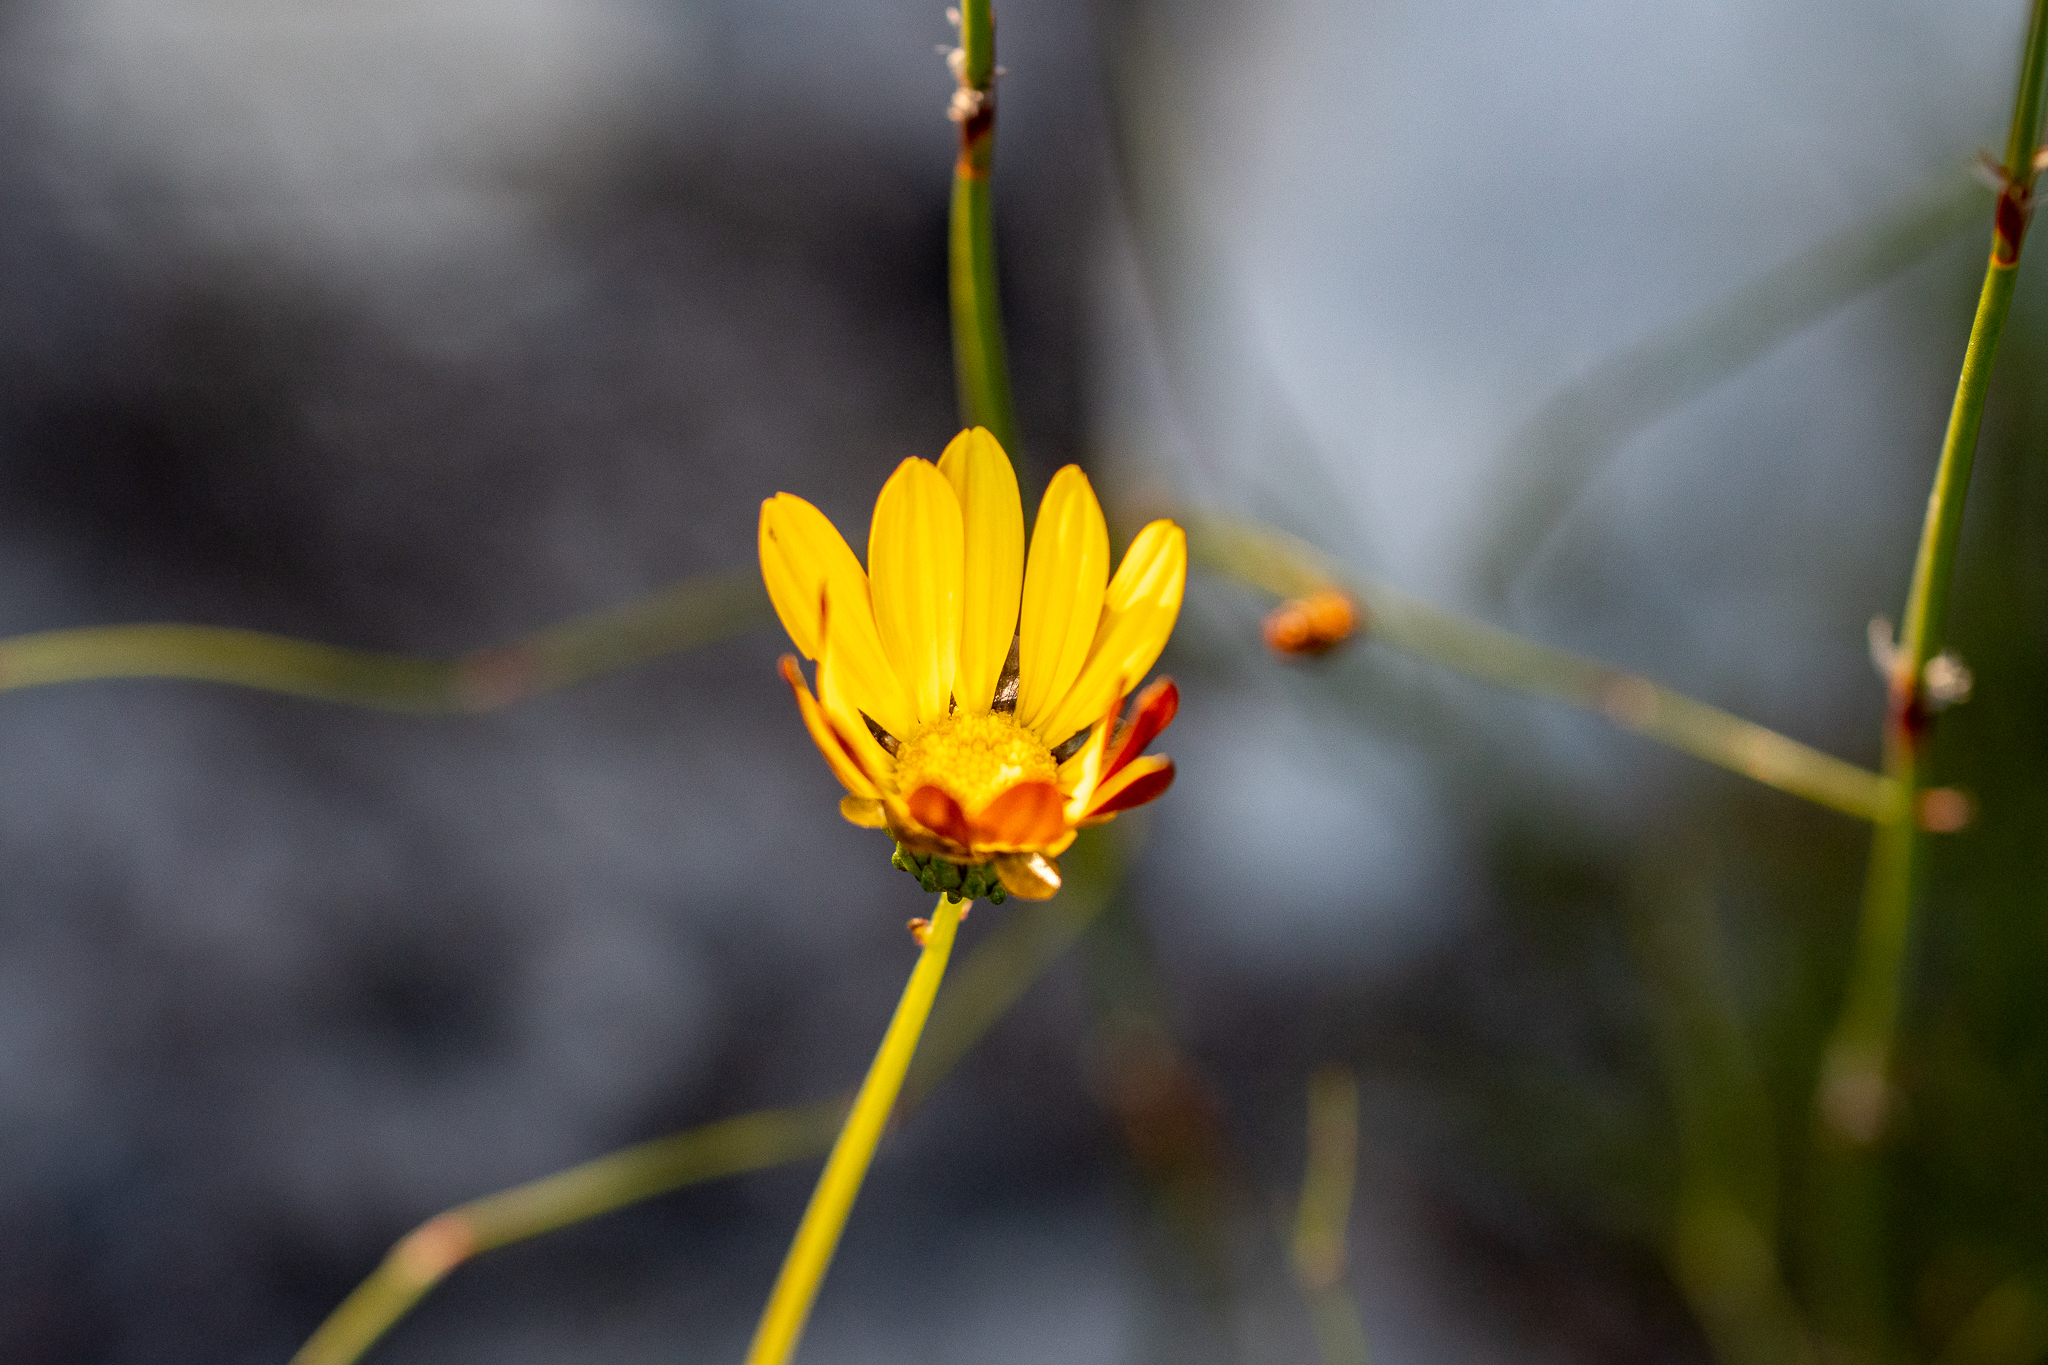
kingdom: Plantae
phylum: Tracheophyta
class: Magnoliopsida
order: Asterales
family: Asteraceae
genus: Ursinia
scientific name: Ursinia paleacea
